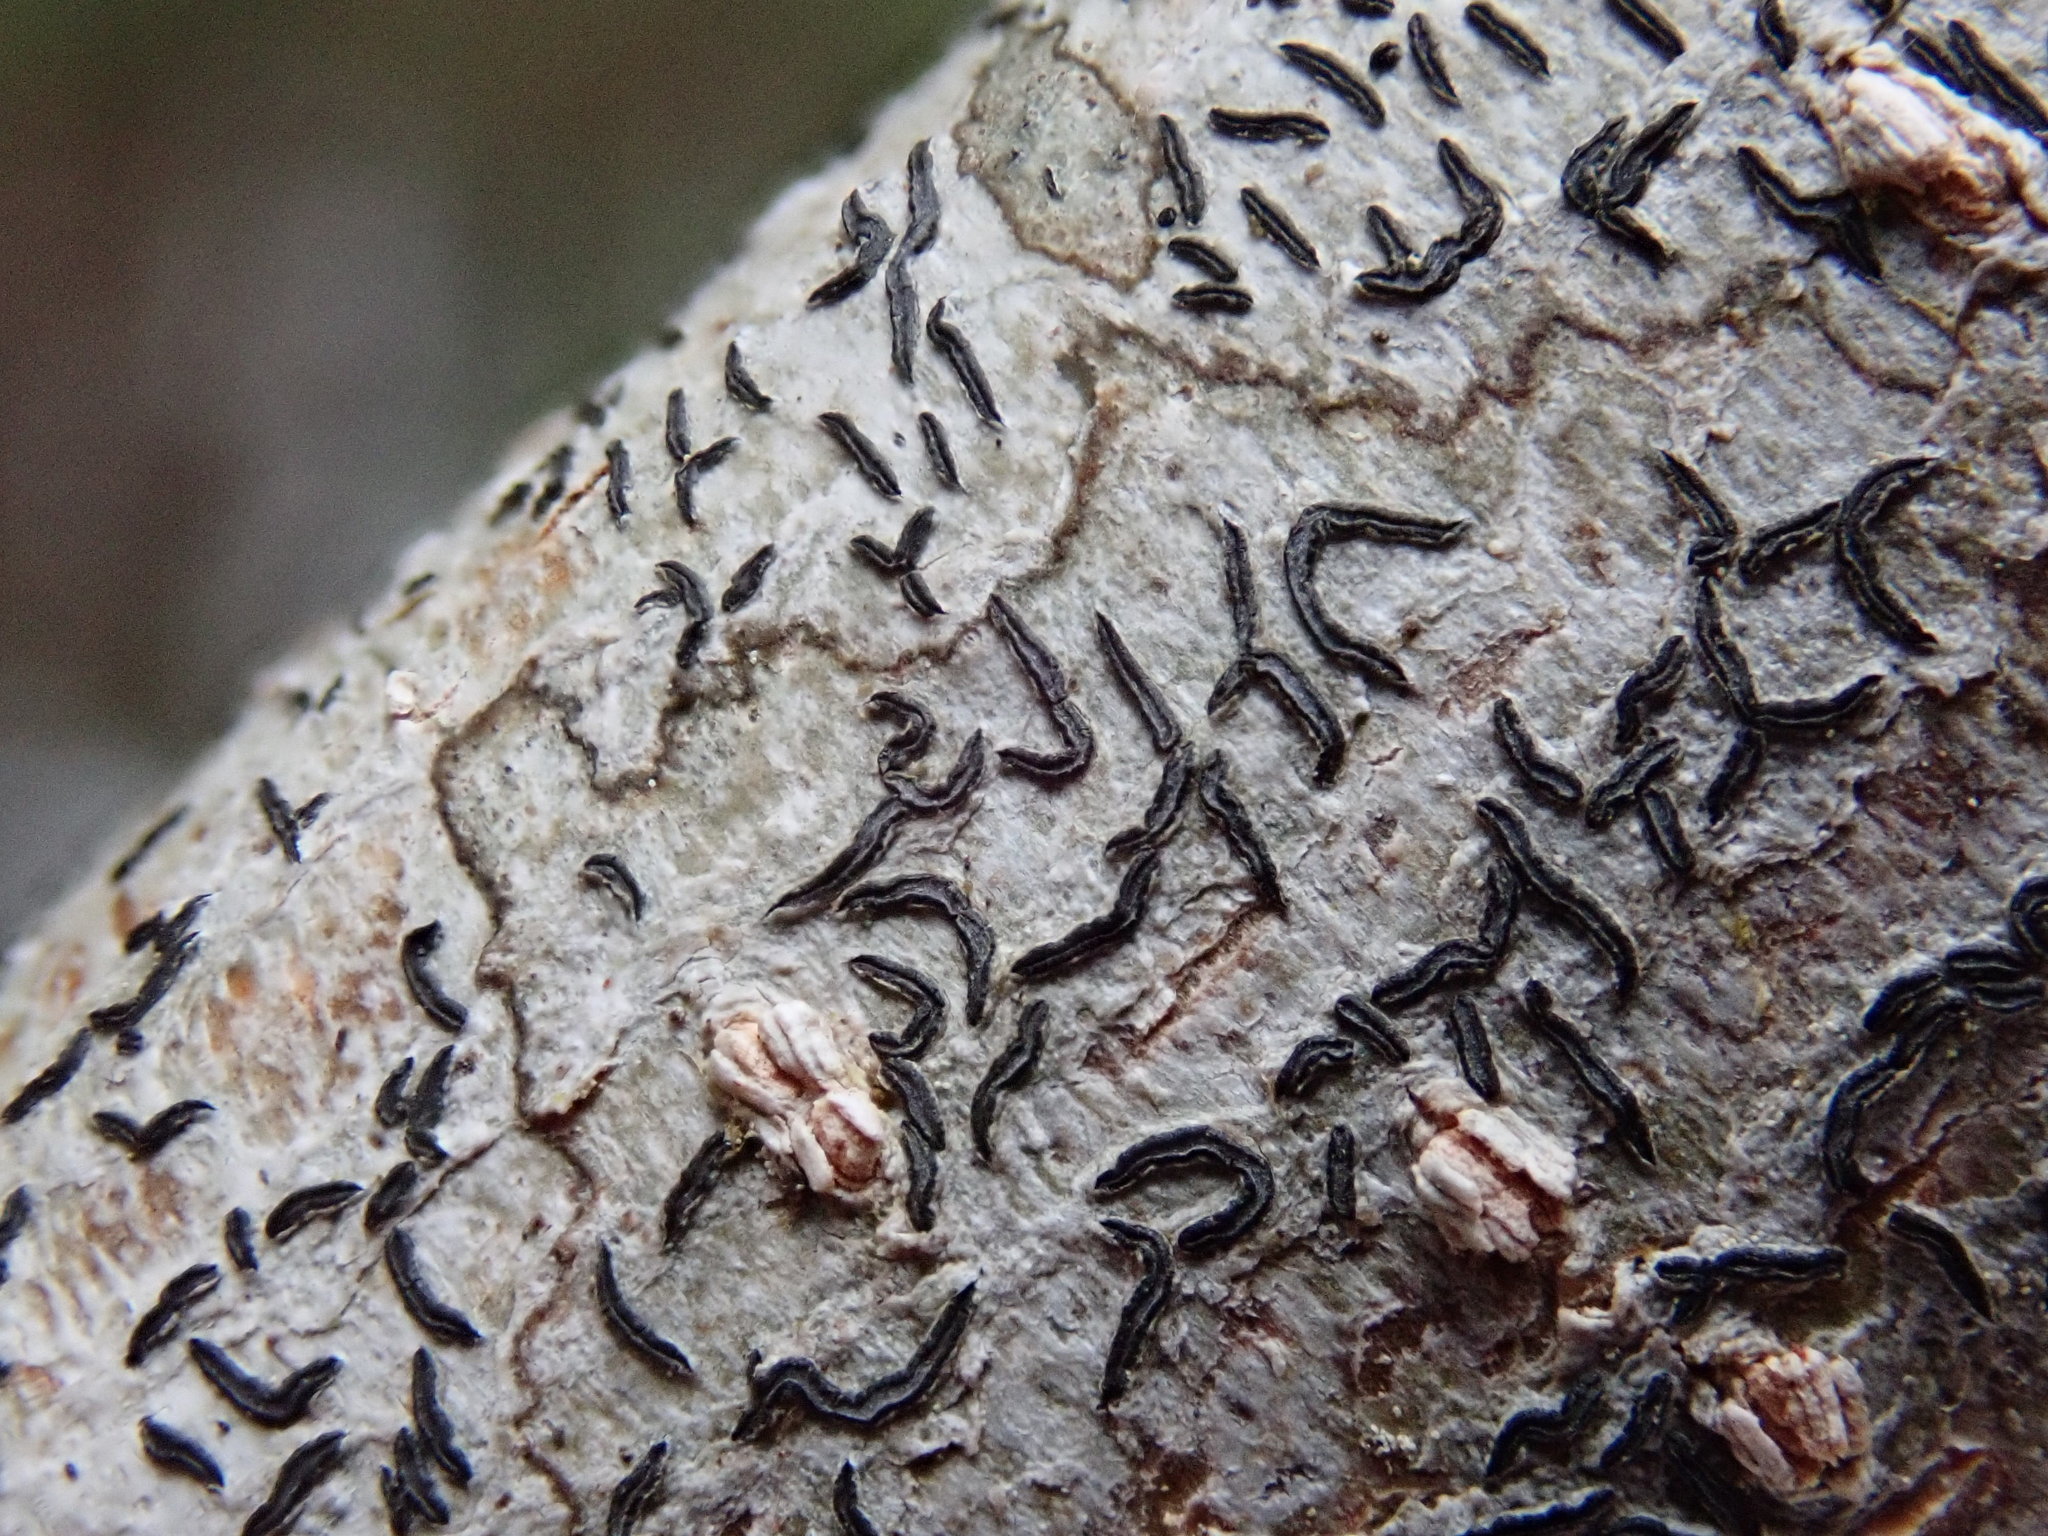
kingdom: Fungi
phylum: Ascomycota
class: Lecanoromycetes
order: Ostropales
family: Graphidaceae
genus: Graphis
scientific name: Graphis scripta
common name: Script lichen
